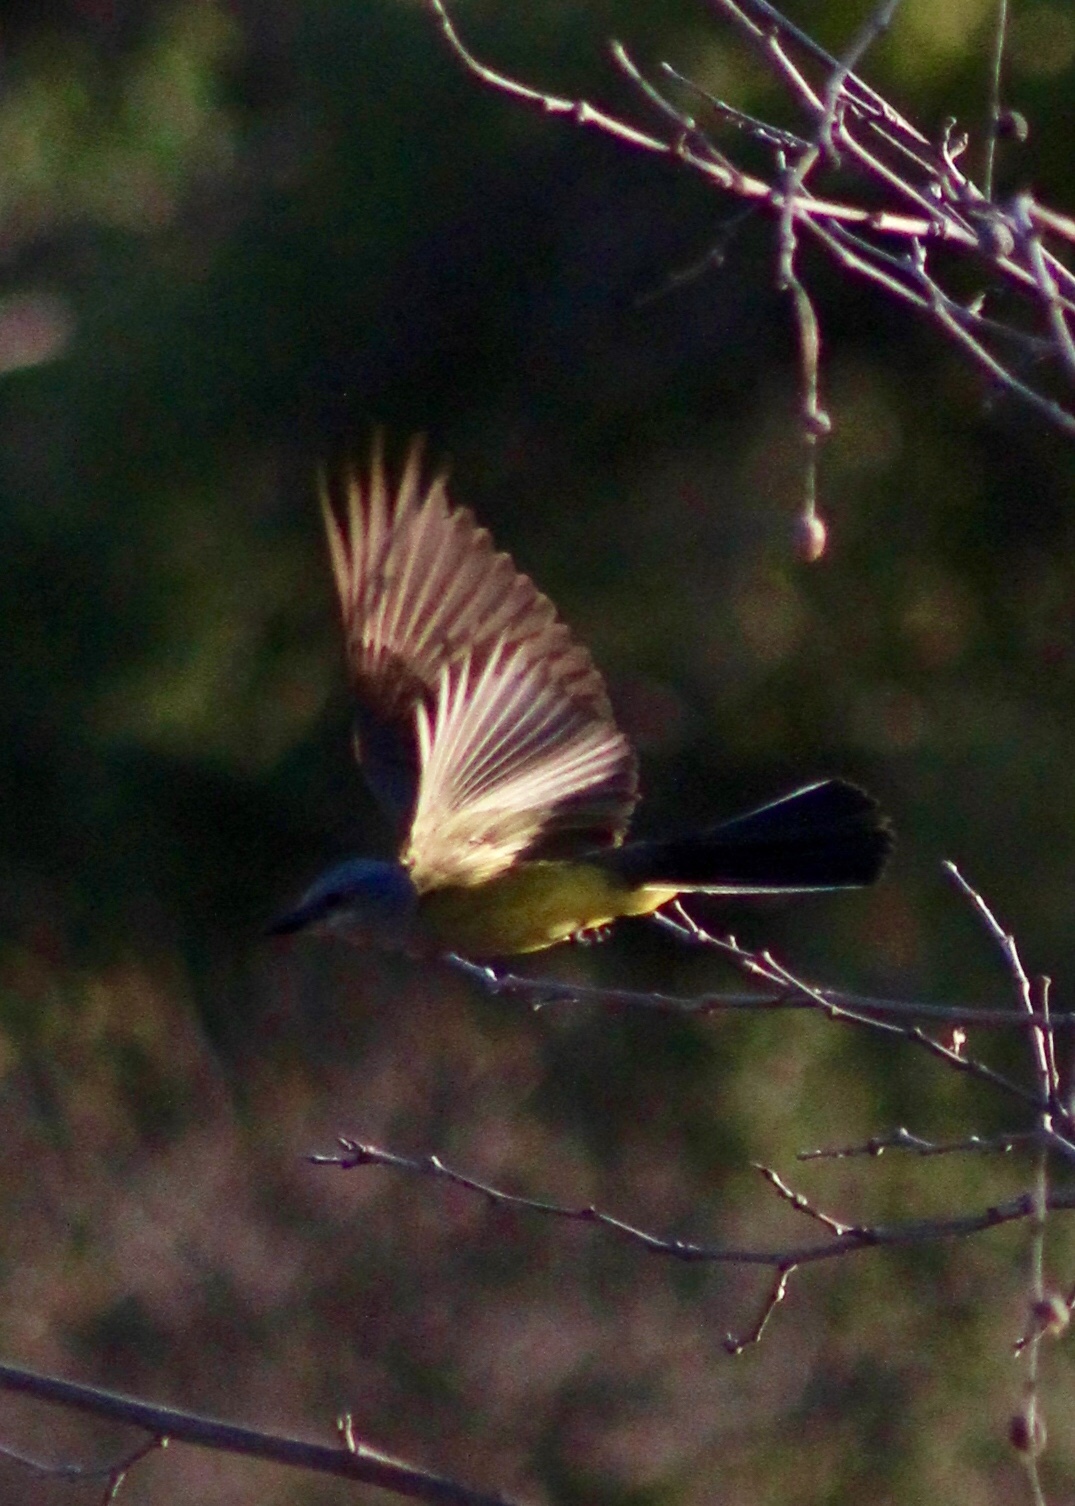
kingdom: Animalia
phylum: Chordata
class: Aves
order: Passeriformes
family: Tyrannidae
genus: Tyrannus
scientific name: Tyrannus verticalis
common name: Western kingbird
